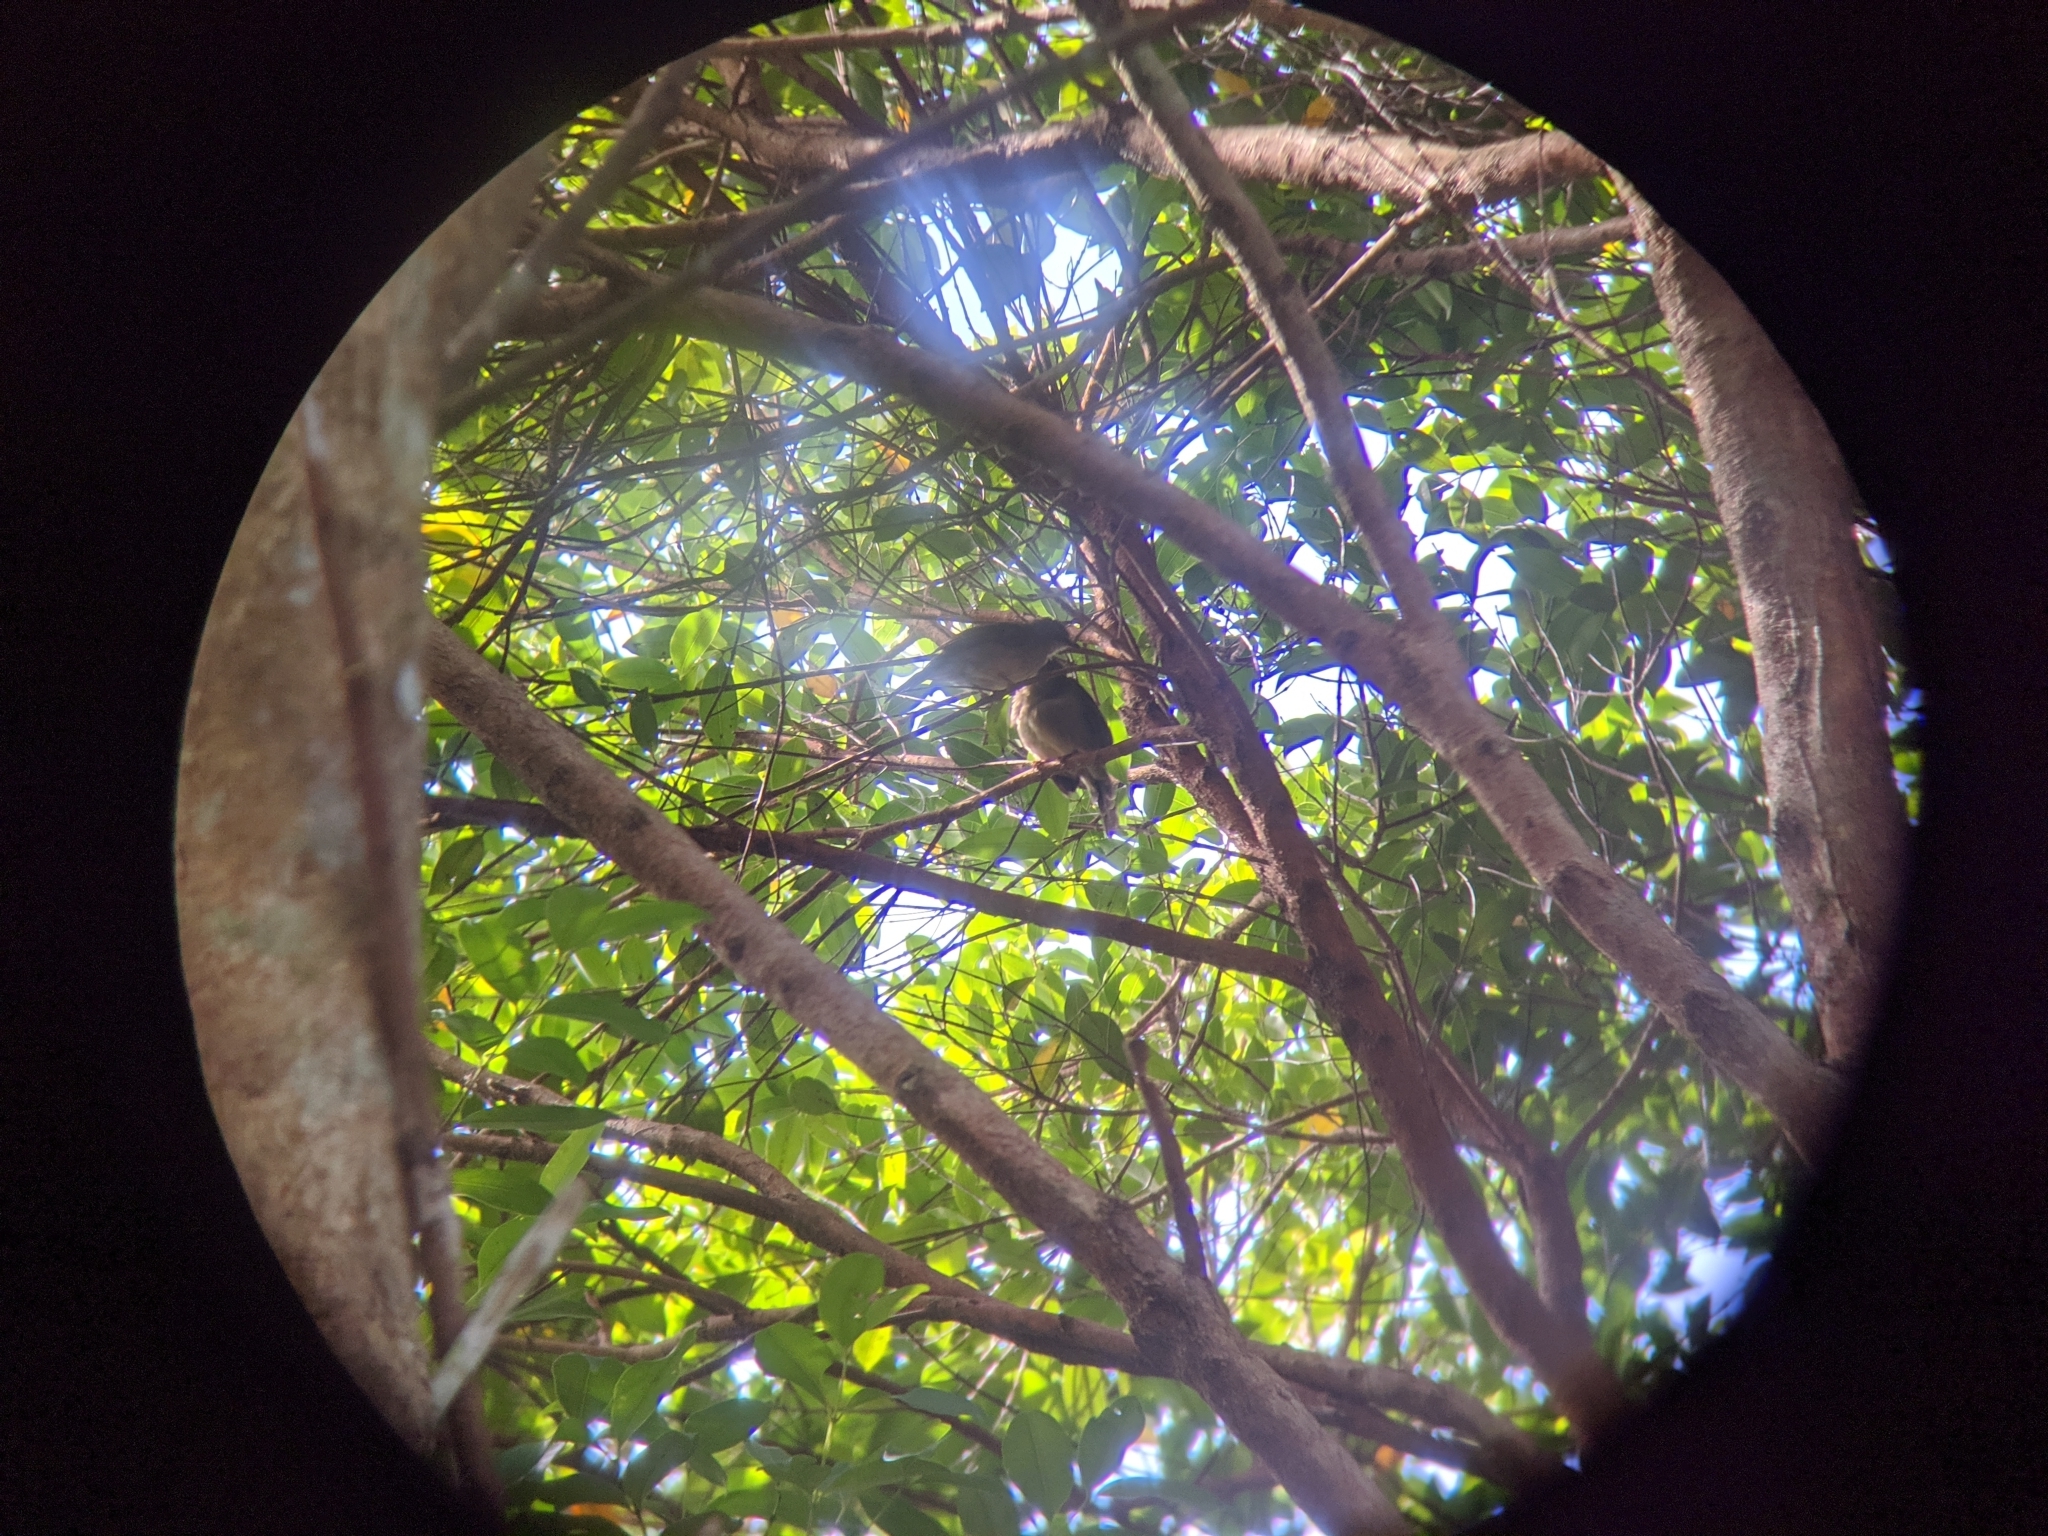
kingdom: Animalia
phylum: Chordata
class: Aves
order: Passeriformes
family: Pycnonotidae
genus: Pycnonotus
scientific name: Pycnonotus
